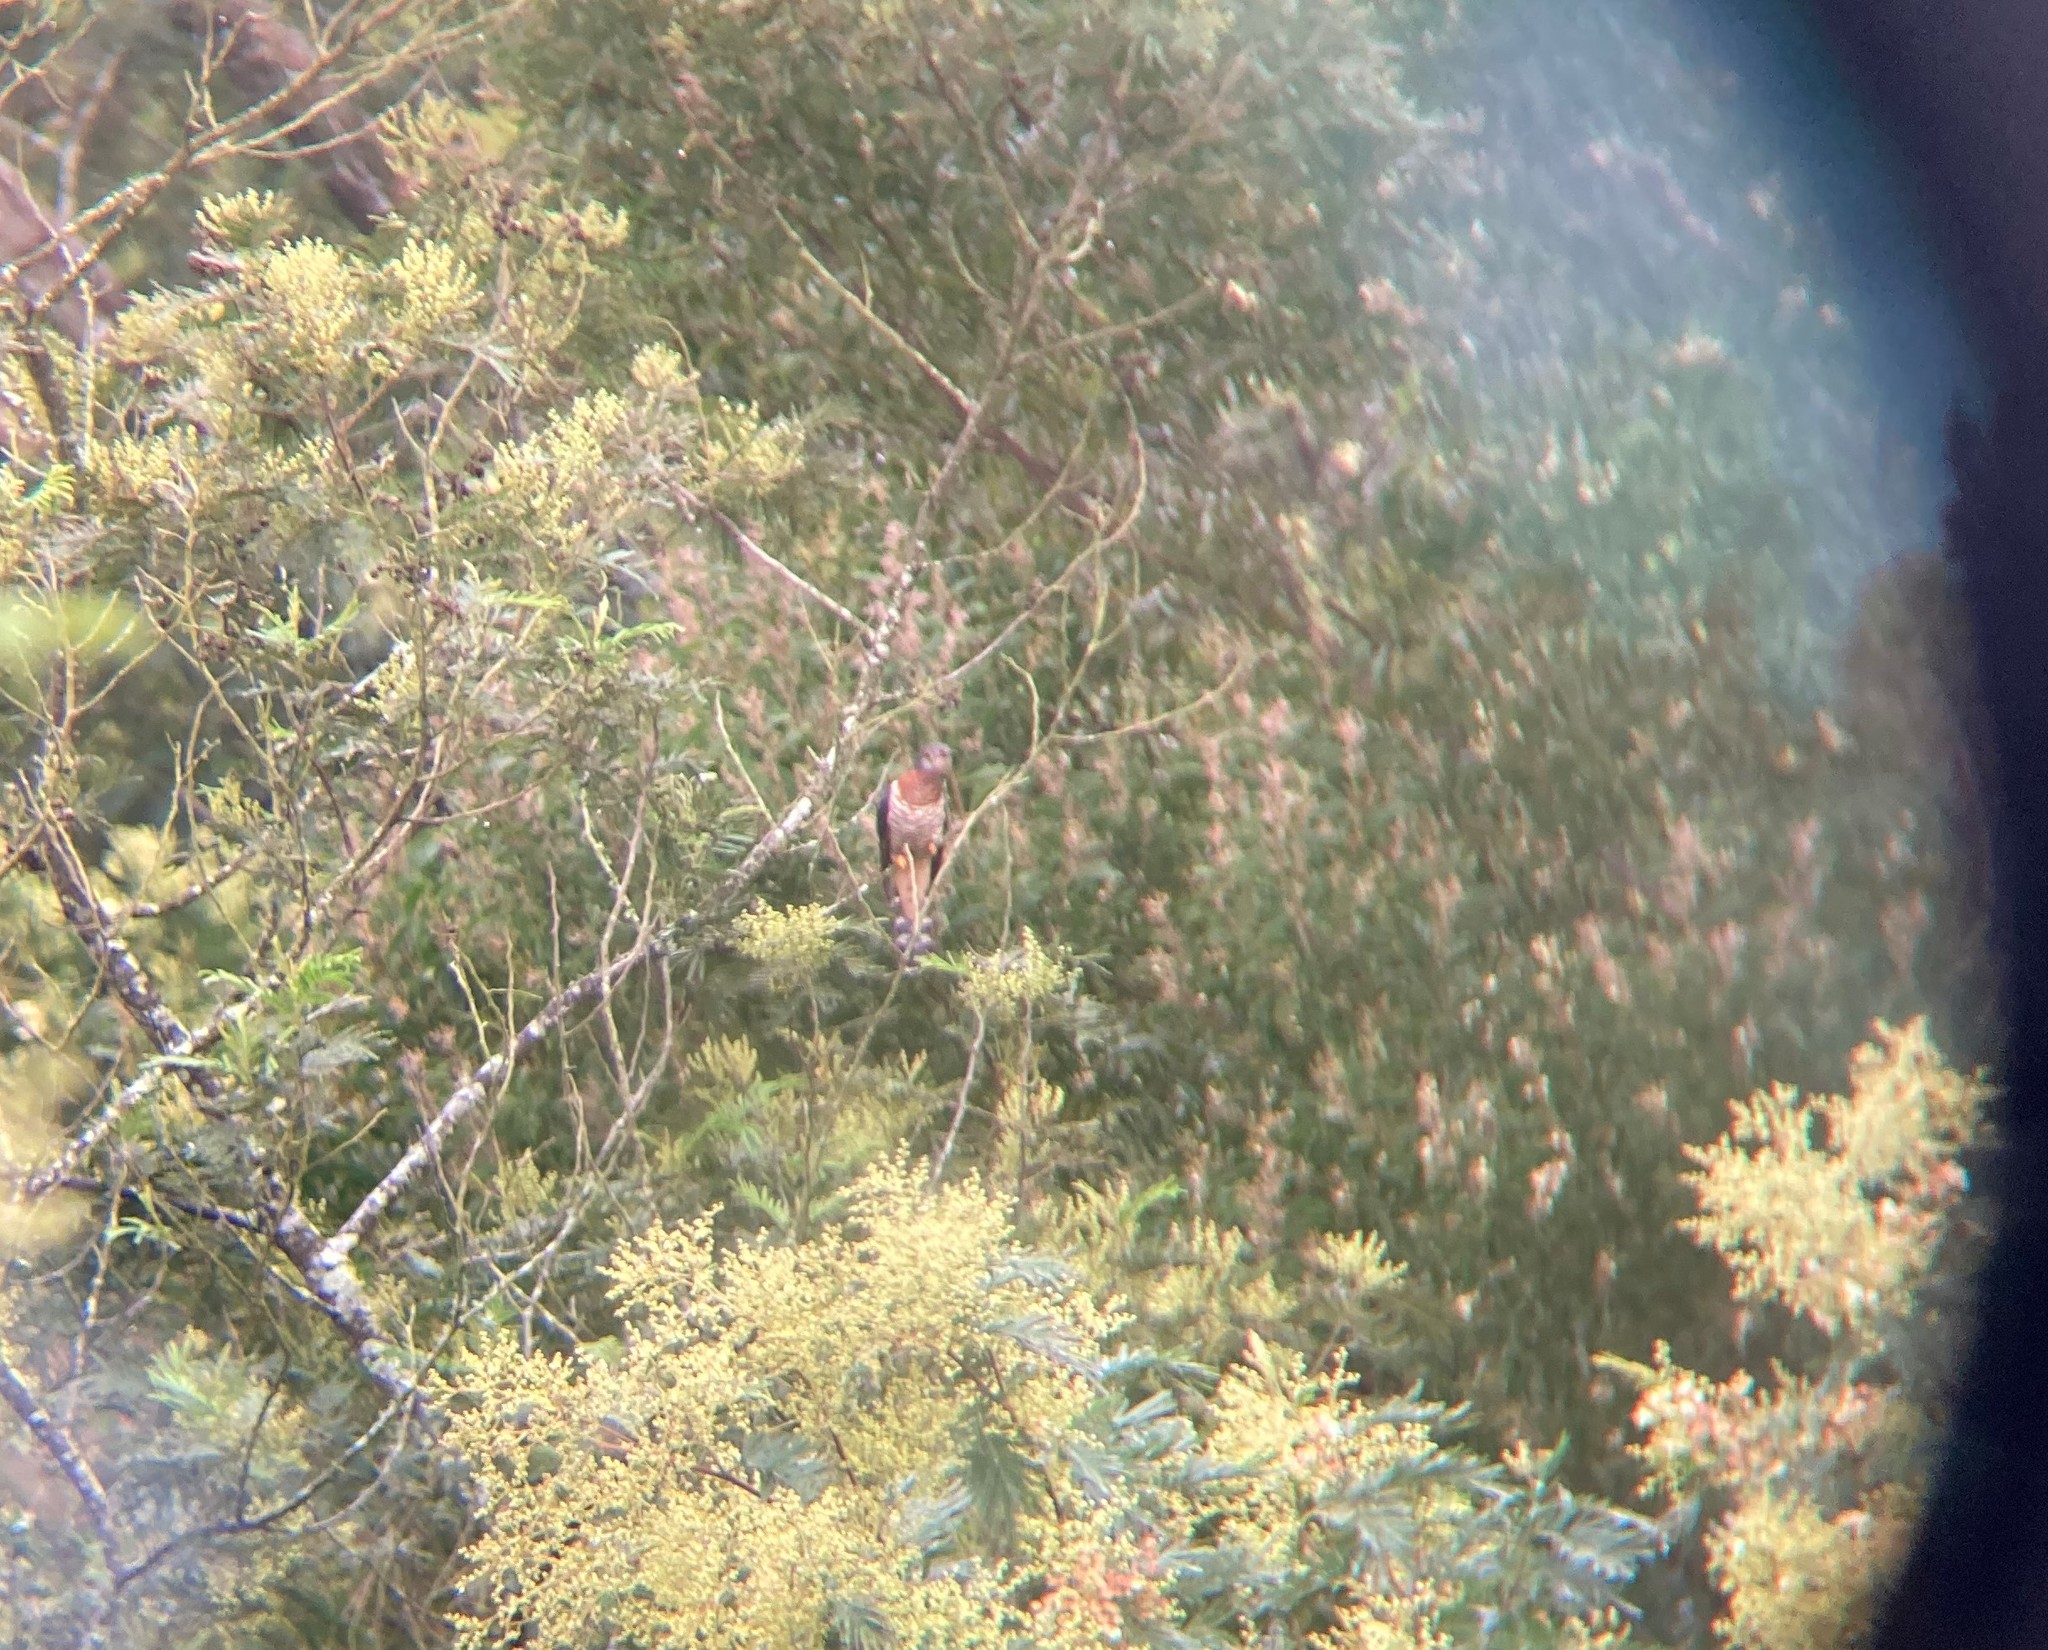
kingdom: Animalia
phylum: Chordata
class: Aves
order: Cuculiformes
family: Cuculidae
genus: Cuculus
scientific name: Cuculus solitarius
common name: Red-chested cuckoo
